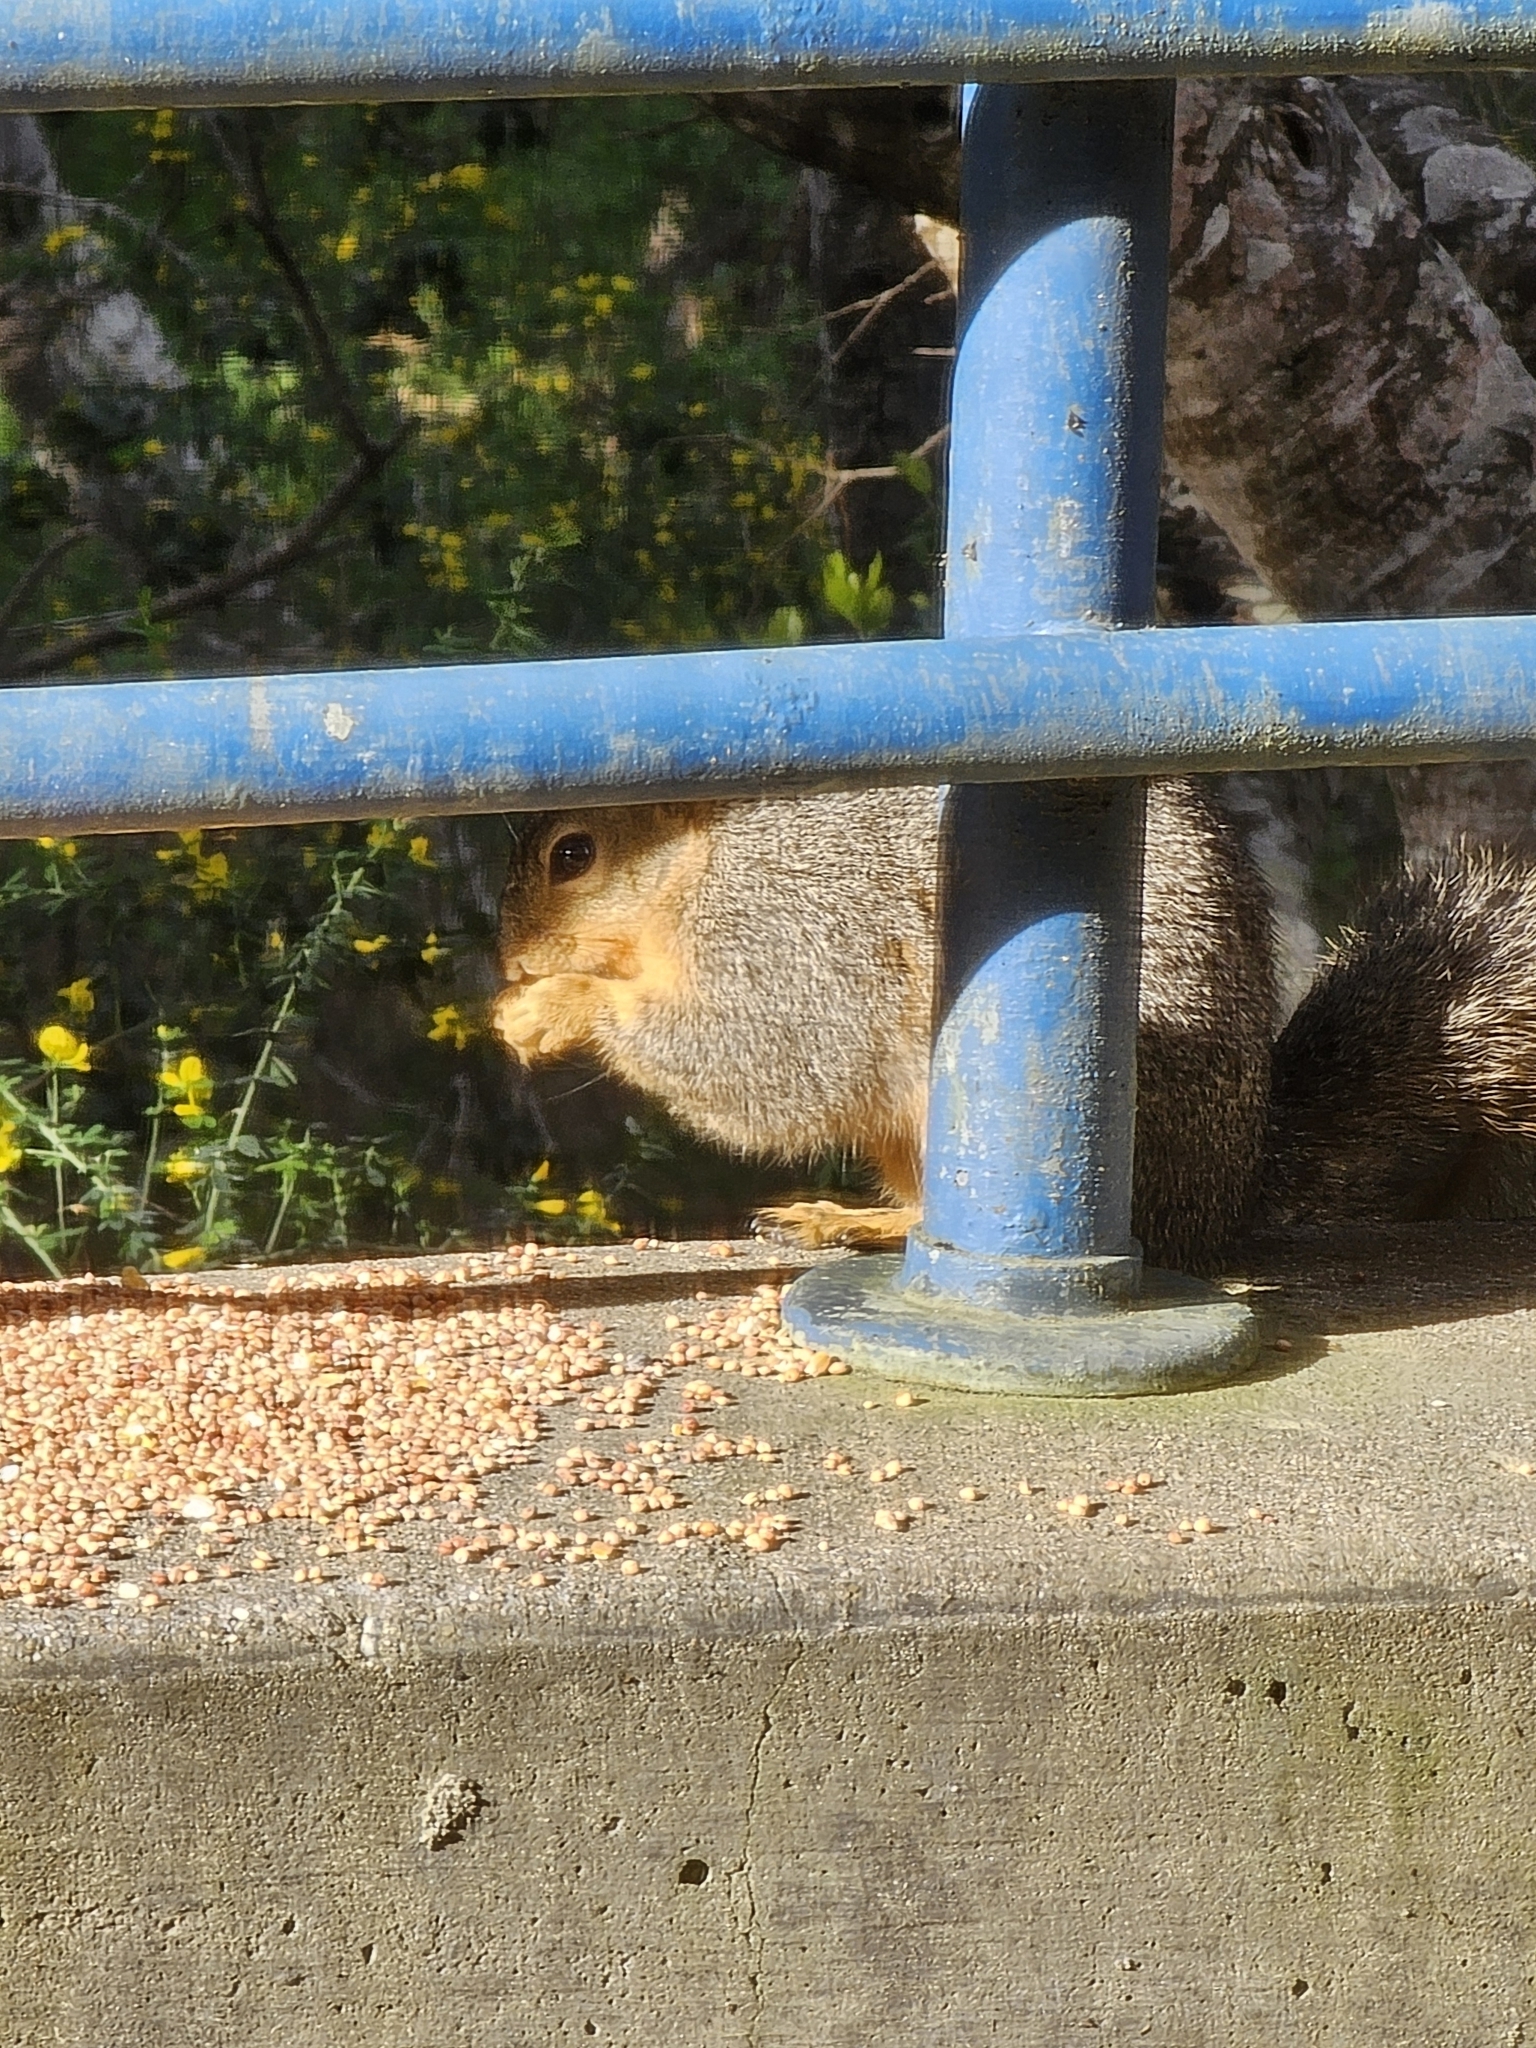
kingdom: Animalia
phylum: Chordata
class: Mammalia
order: Rodentia
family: Sciuridae
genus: Sciurus
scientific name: Sciurus niger
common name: Fox squirrel
